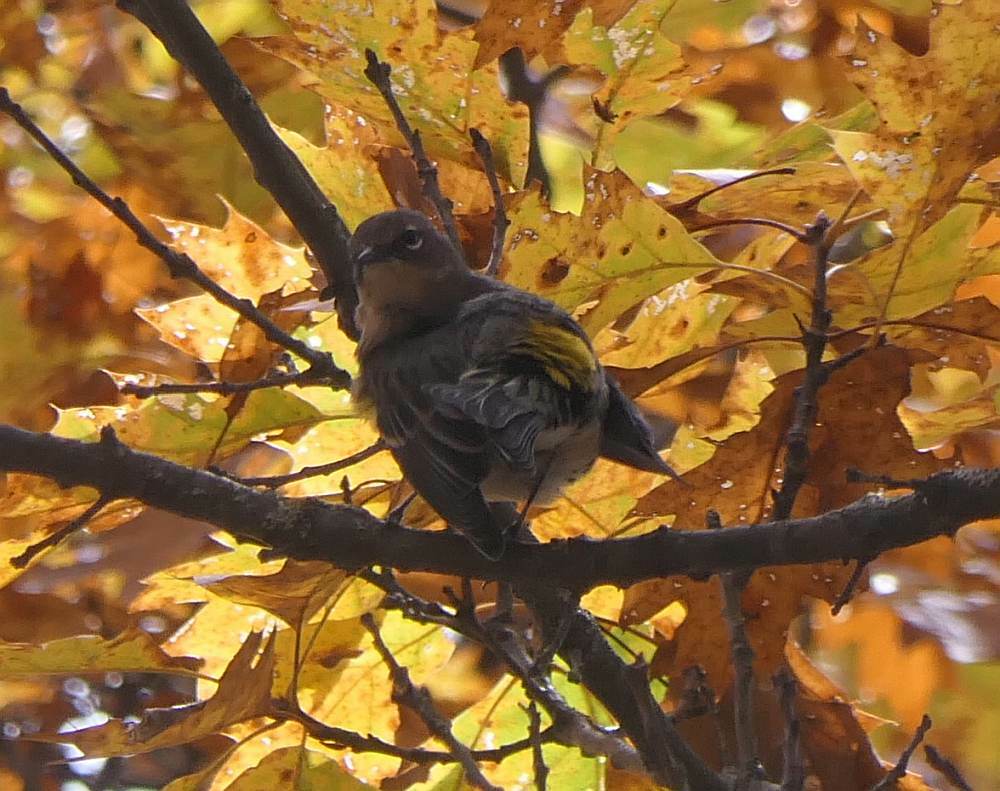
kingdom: Animalia
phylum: Chordata
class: Aves
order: Passeriformes
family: Parulidae
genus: Setophaga
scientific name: Setophaga coronata
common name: Myrtle warbler
